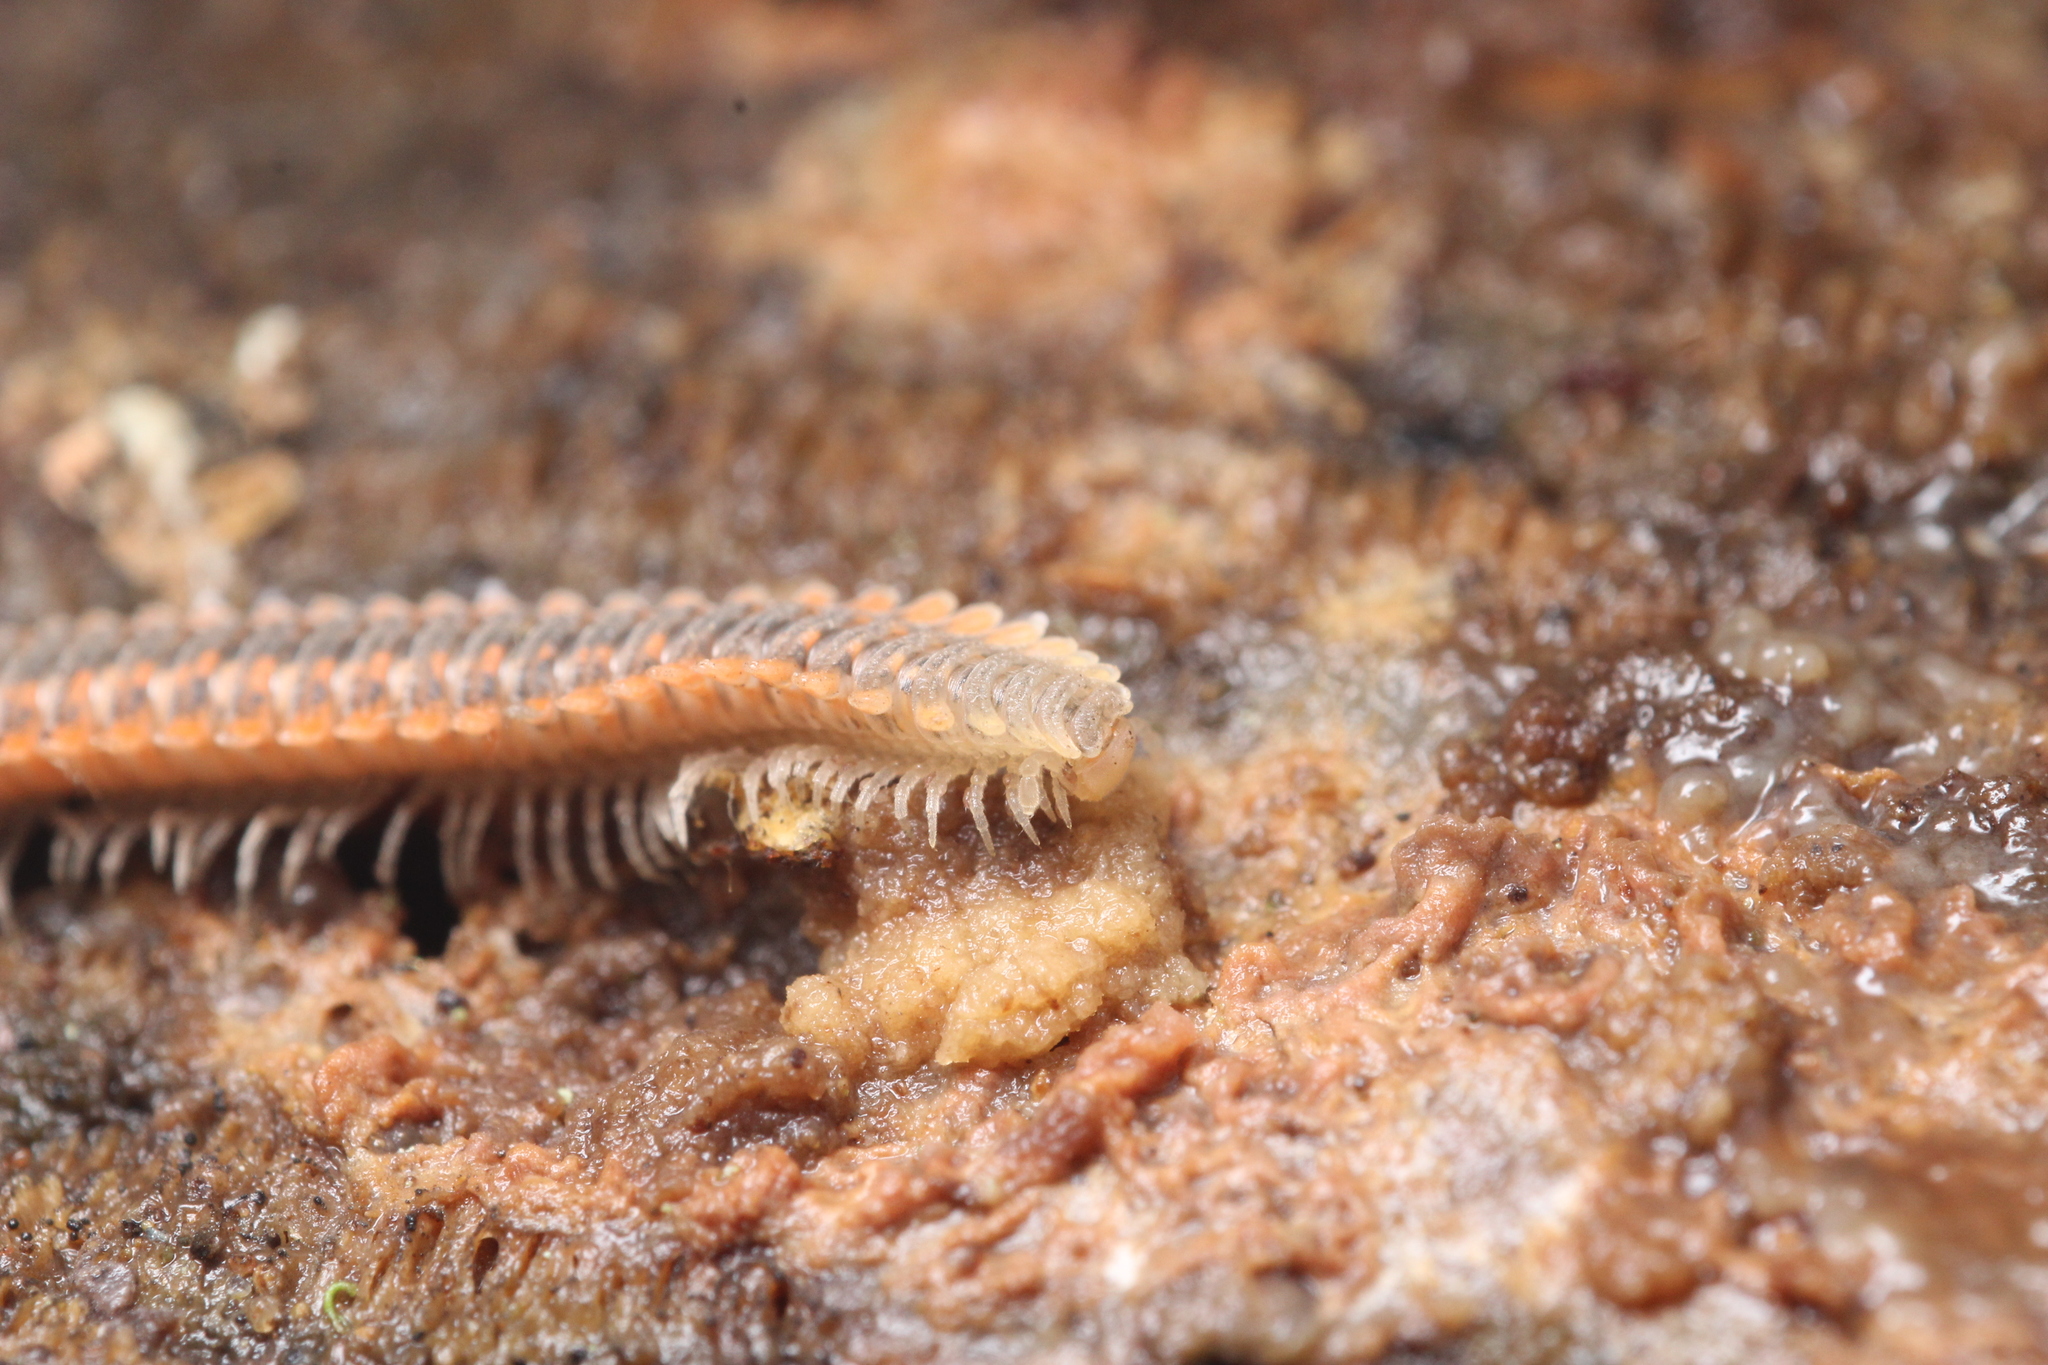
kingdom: Animalia
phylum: Arthropoda
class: Diplopoda
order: Platydesmida
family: Andrognathidae
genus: Brachycybe
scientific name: Brachycybe producta
